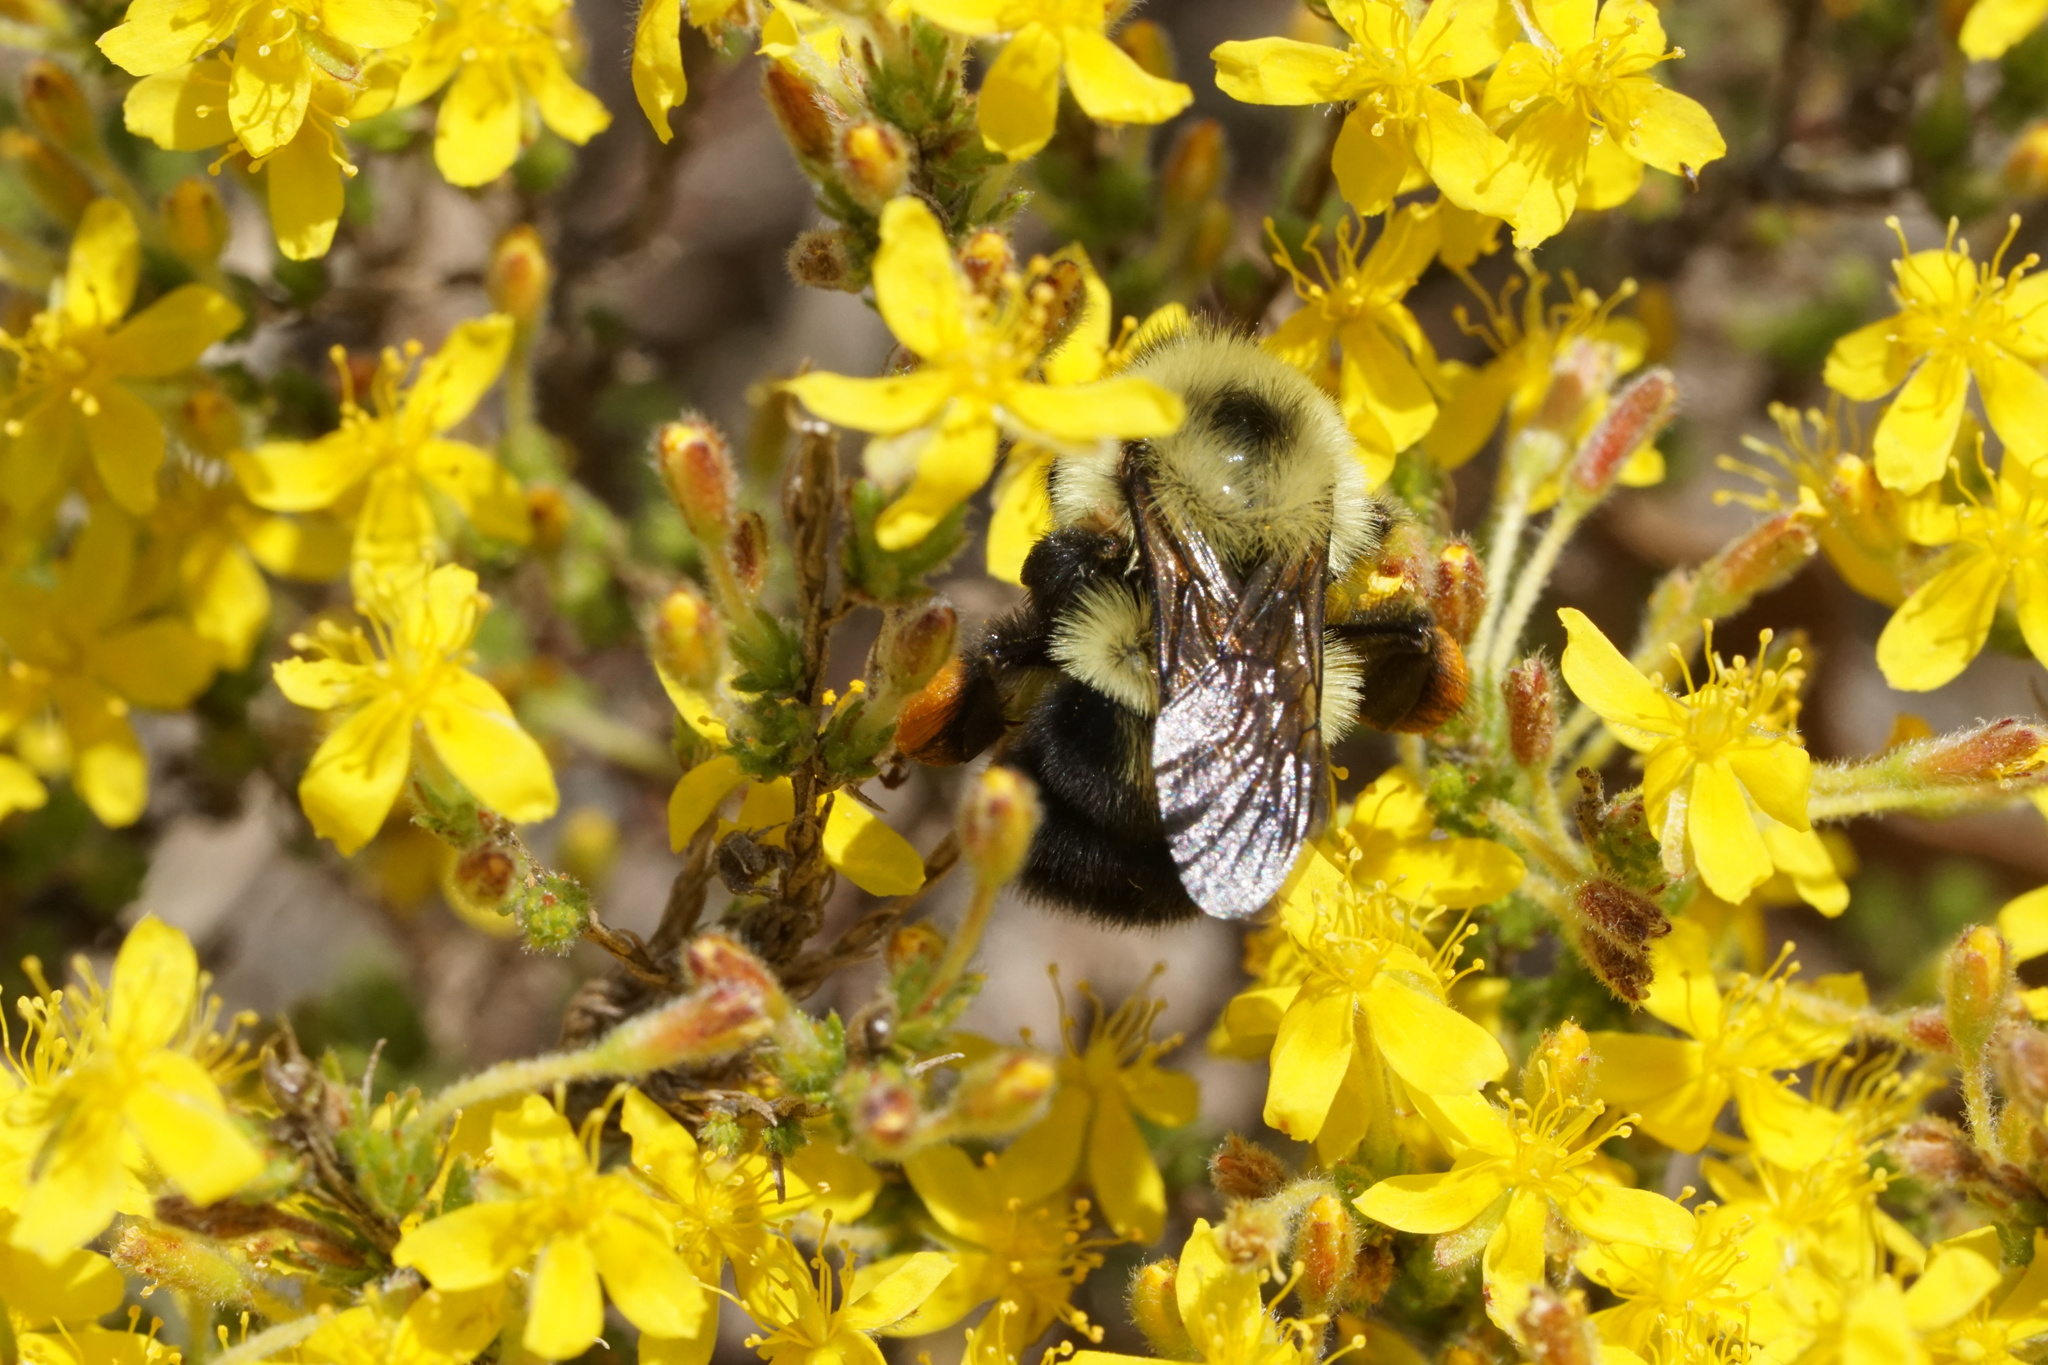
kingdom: Animalia
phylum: Arthropoda
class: Insecta
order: Hymenoptera
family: Apidae
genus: Bombus
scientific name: Bombus bimaculatus
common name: Two-spotted bumble bee
